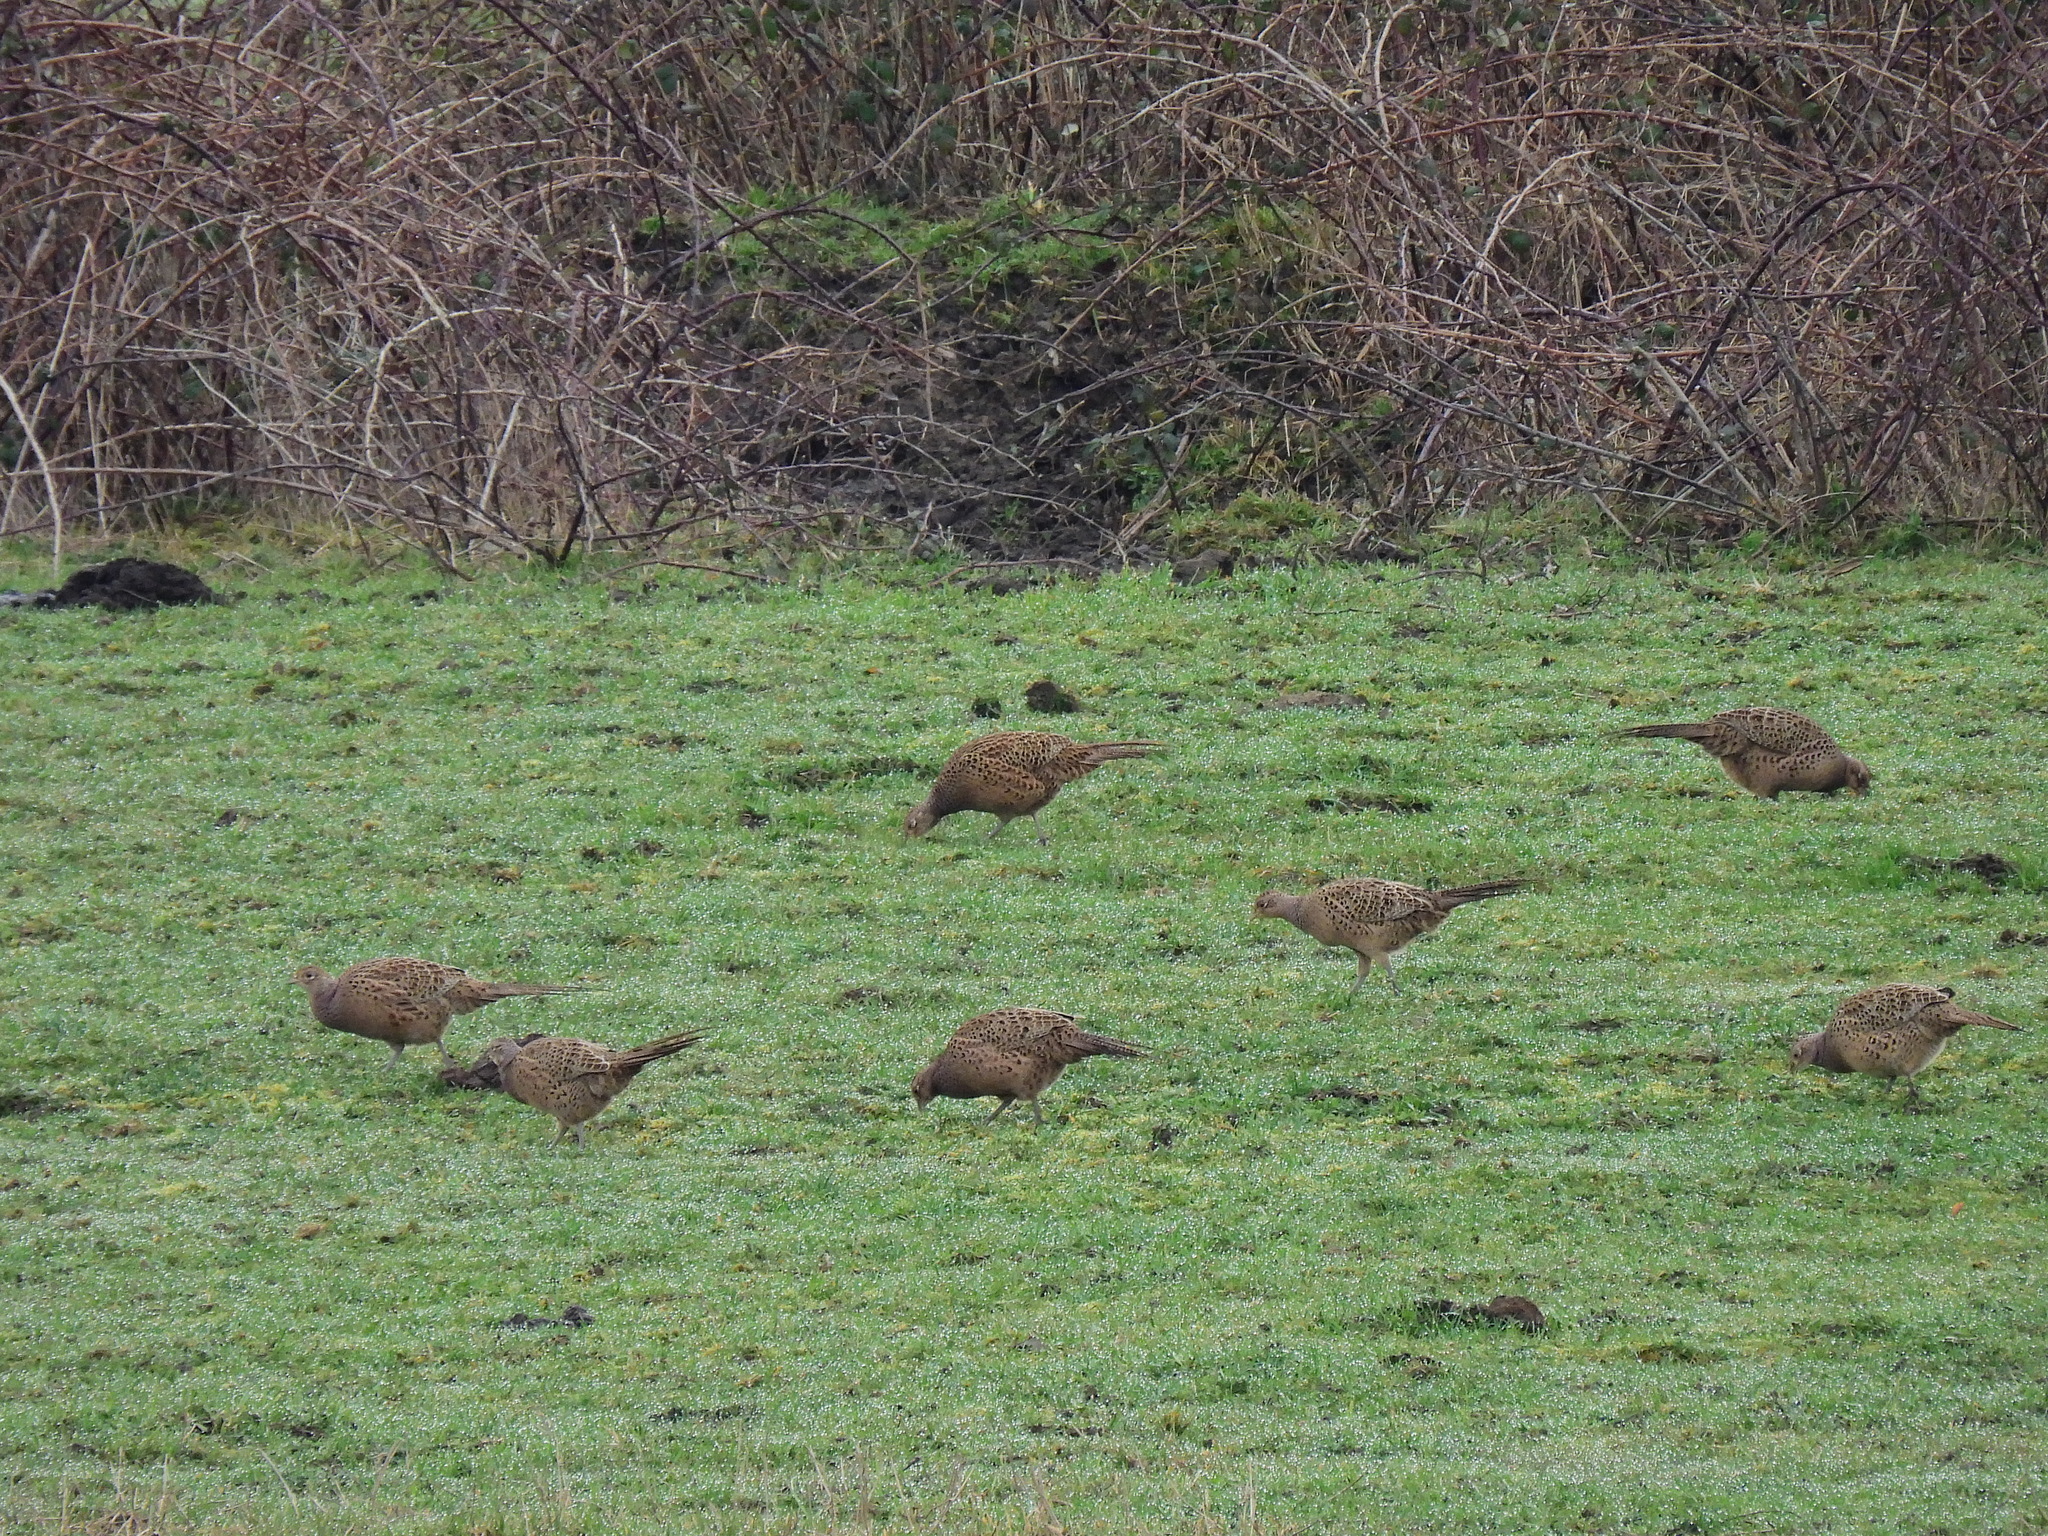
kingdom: Animalia
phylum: Chordata
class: Aves
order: Galliformes
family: Phasianidae
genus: Phasianus
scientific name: Phasianus colchicus
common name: Common pheasant
